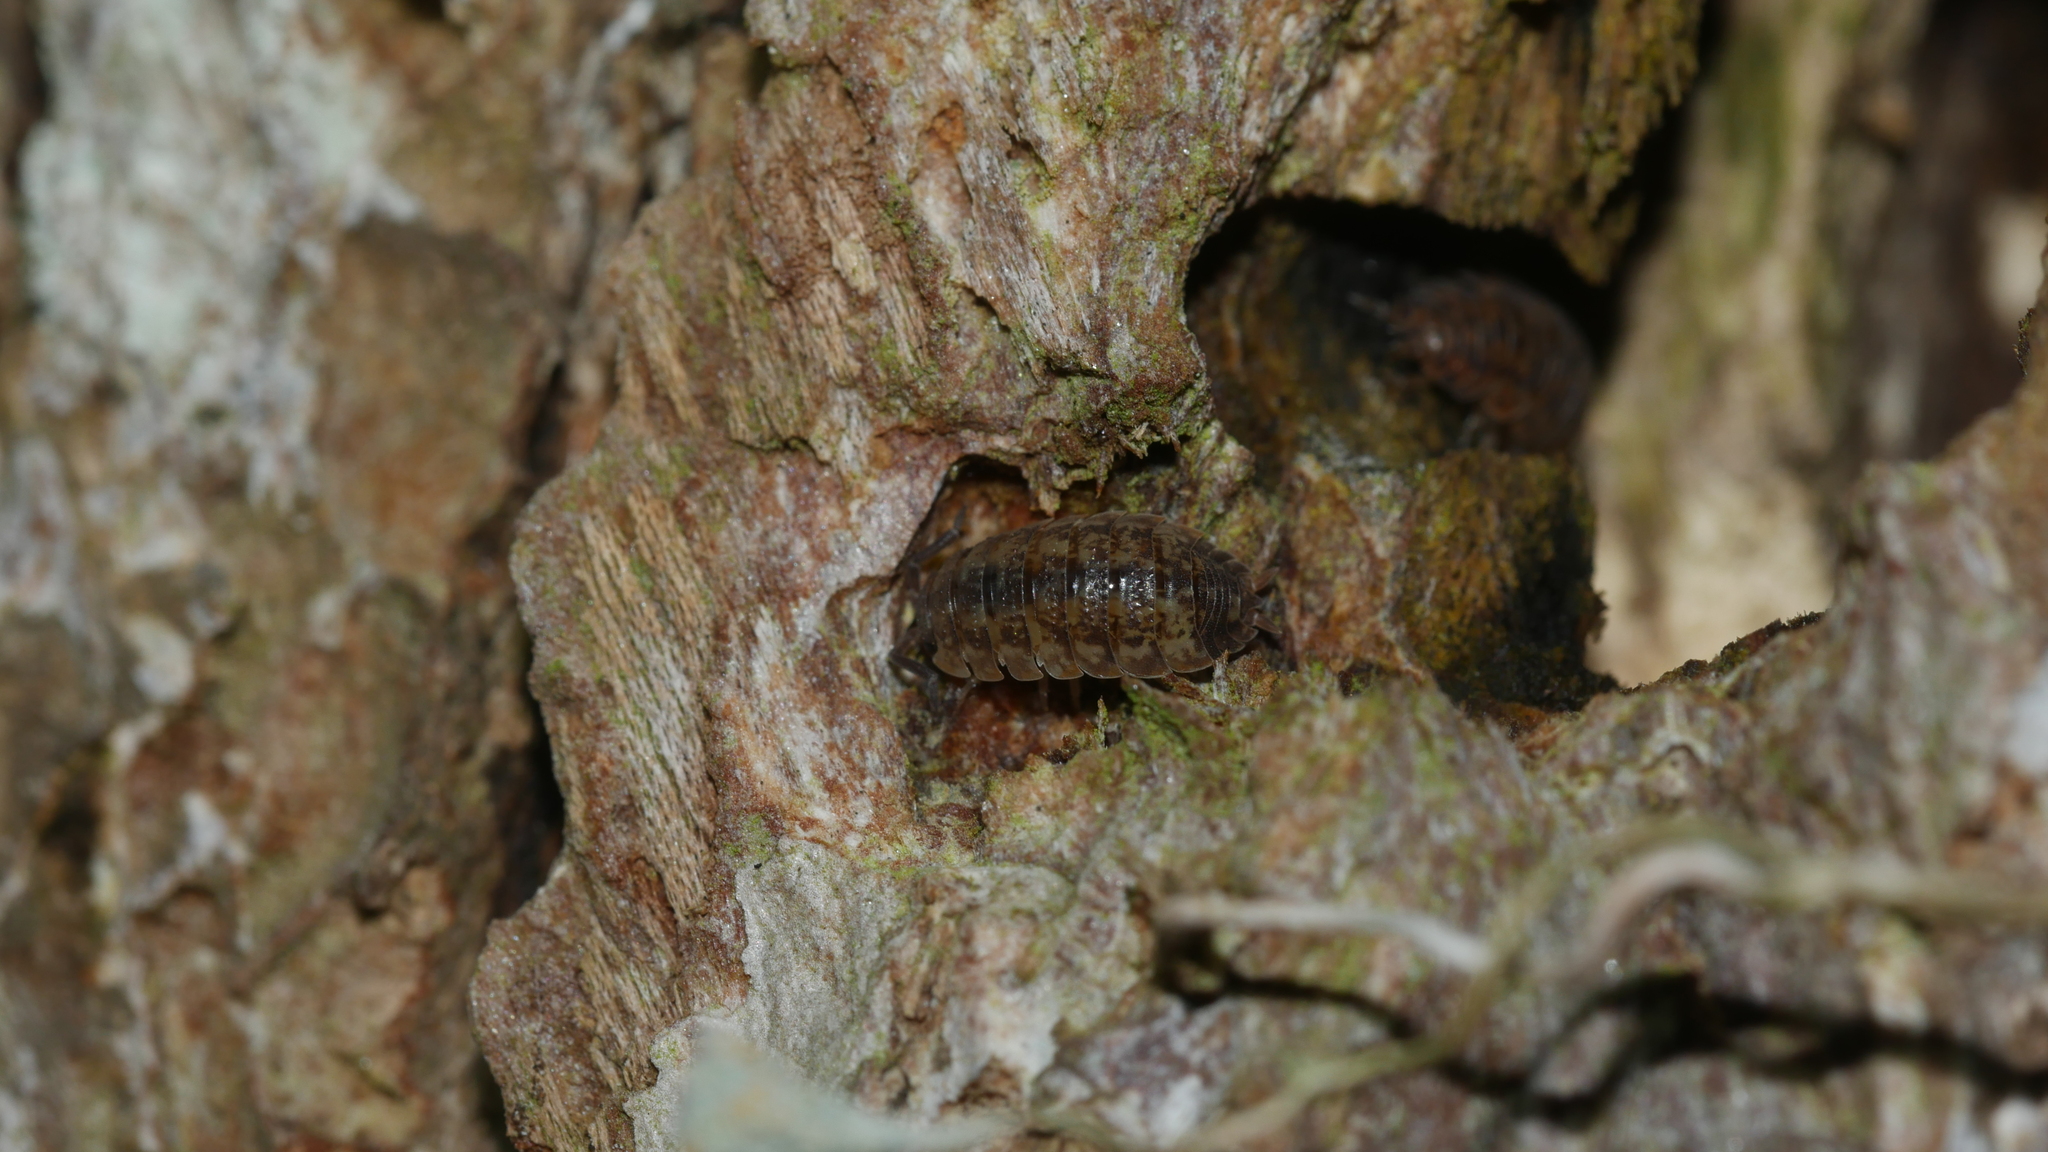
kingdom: Animalia
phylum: Arthropoda
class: Malacostraca
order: Isopoda
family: Porcellionidae
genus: Porcellio
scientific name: Porcellio scaber
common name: Common rough woodlouse
